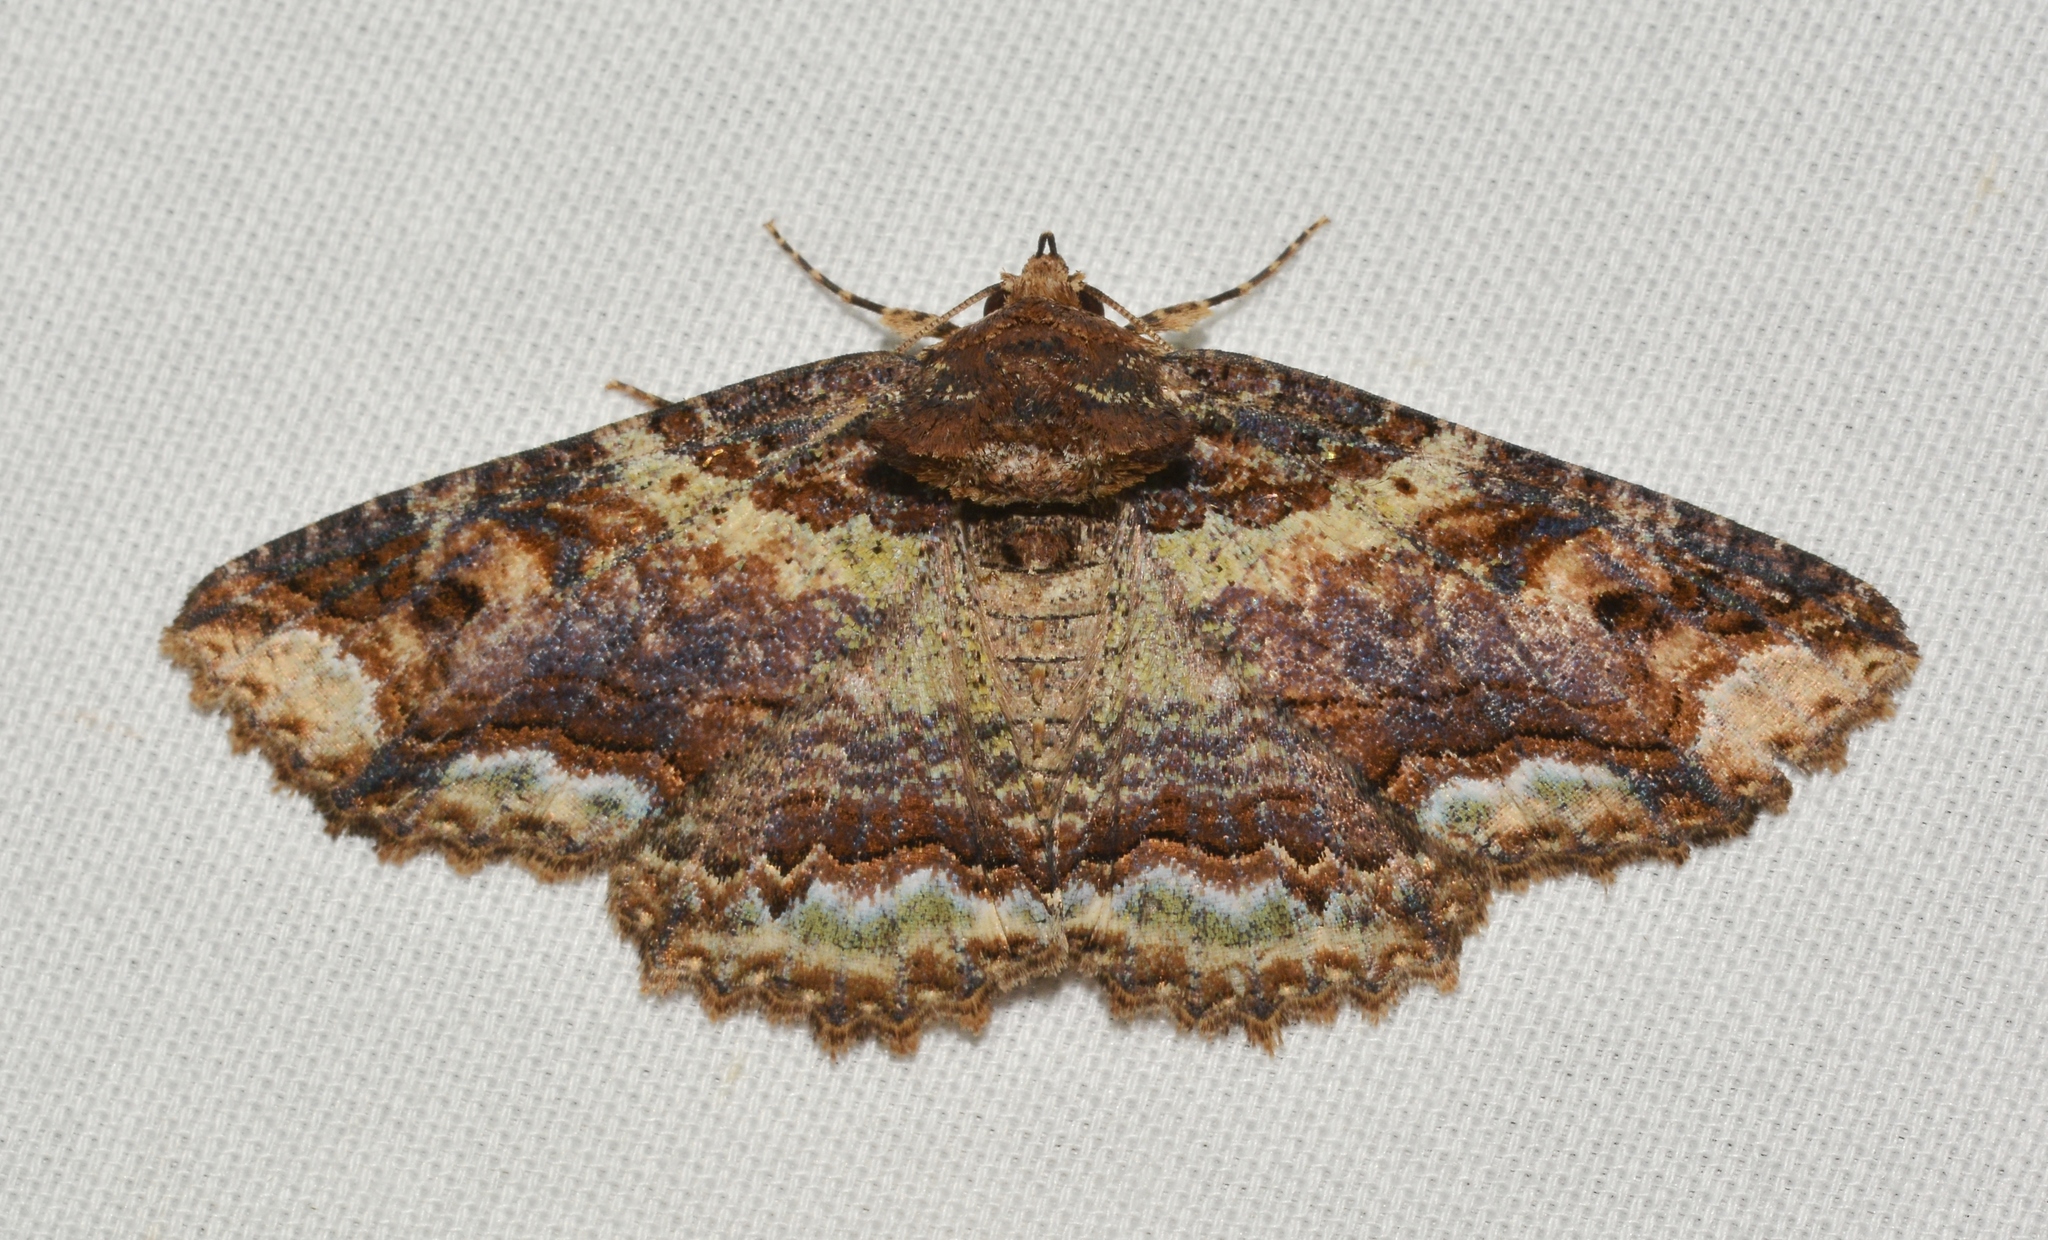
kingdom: Animalia
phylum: Arthropoda
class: Insecta
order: Lepidoptera
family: Erebidae
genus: Zale
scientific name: Zale minerea
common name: Colorful zale moth
